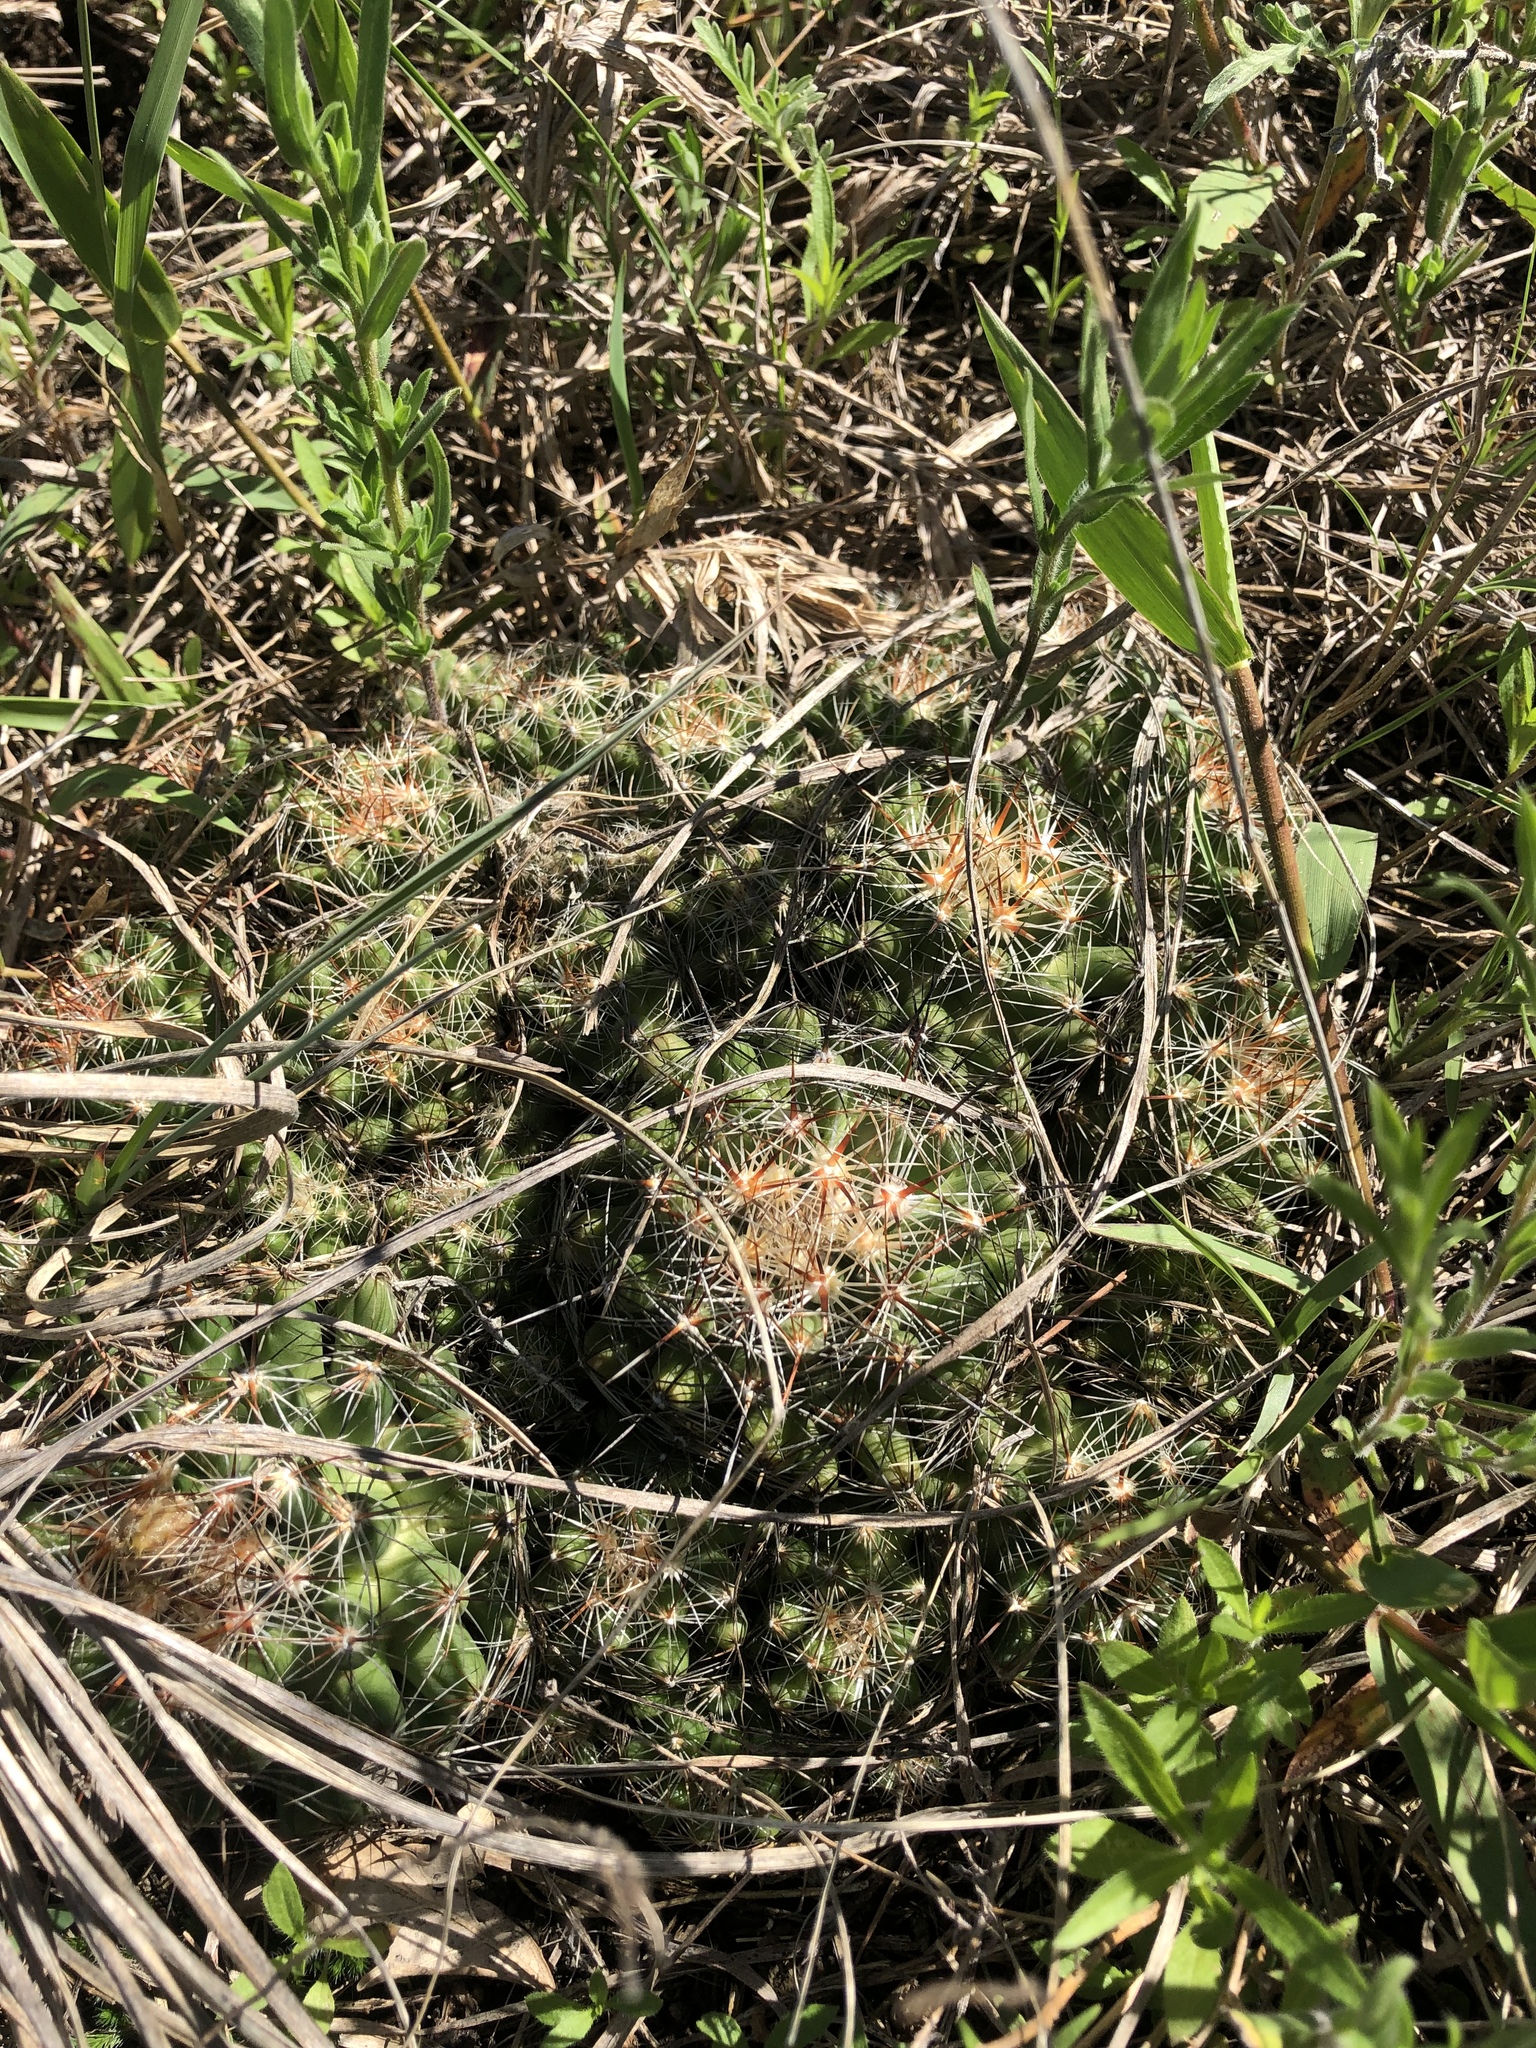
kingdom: Plantae
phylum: Tracheophyta
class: Magnoliopsida
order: Caryophyllales
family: Cactaceae
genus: Pelecyphora
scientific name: Pelecyphora vivipara
